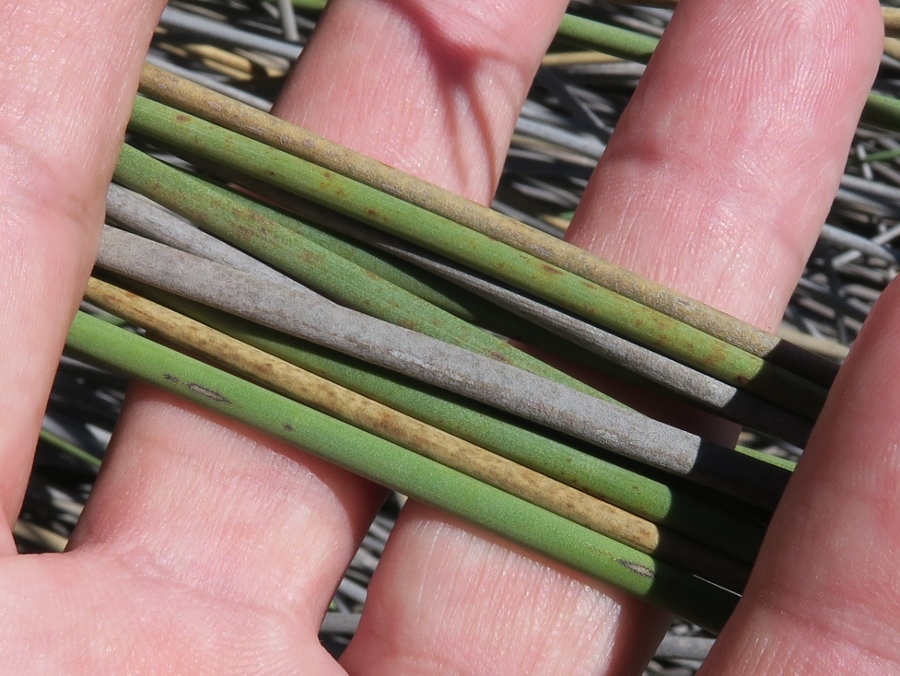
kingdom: Plantae
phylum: Tracheophyta
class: Liliopsida
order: Poales
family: Cyperaceae
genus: Cyperus
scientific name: Cyperus marginatus
